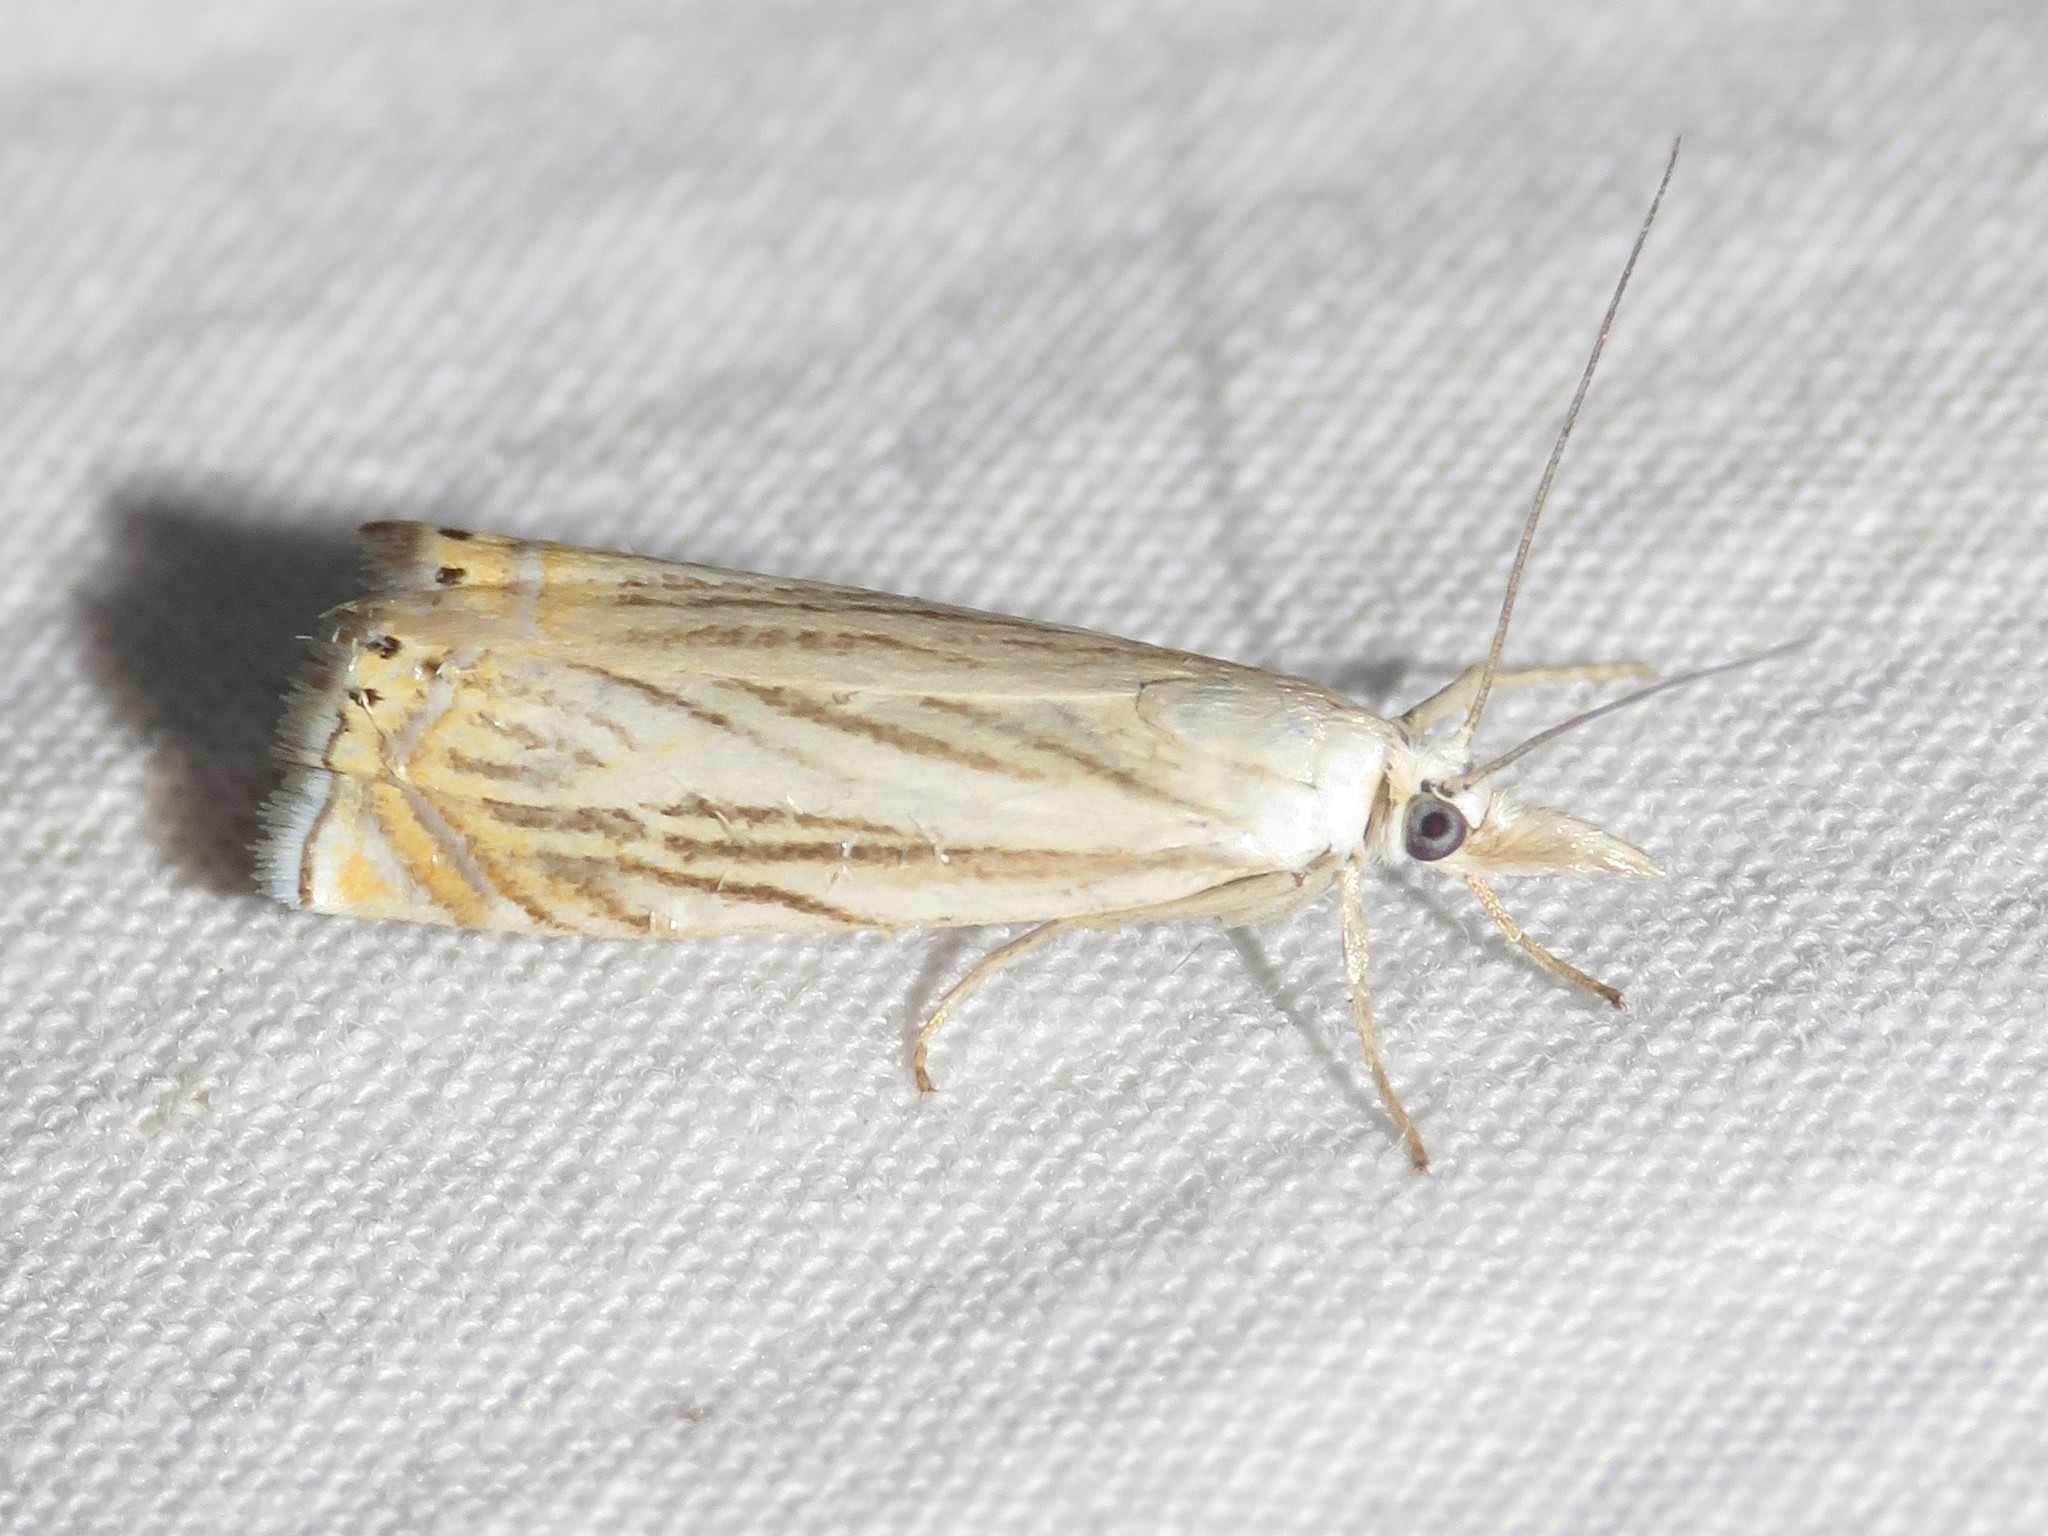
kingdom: Animalia
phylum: Arthropoda
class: Insecta
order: Lepidoptera
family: Crambidae
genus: Chrysoteuchia
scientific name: Chrysoteuchia topiarius
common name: Topiary grass-veneer
